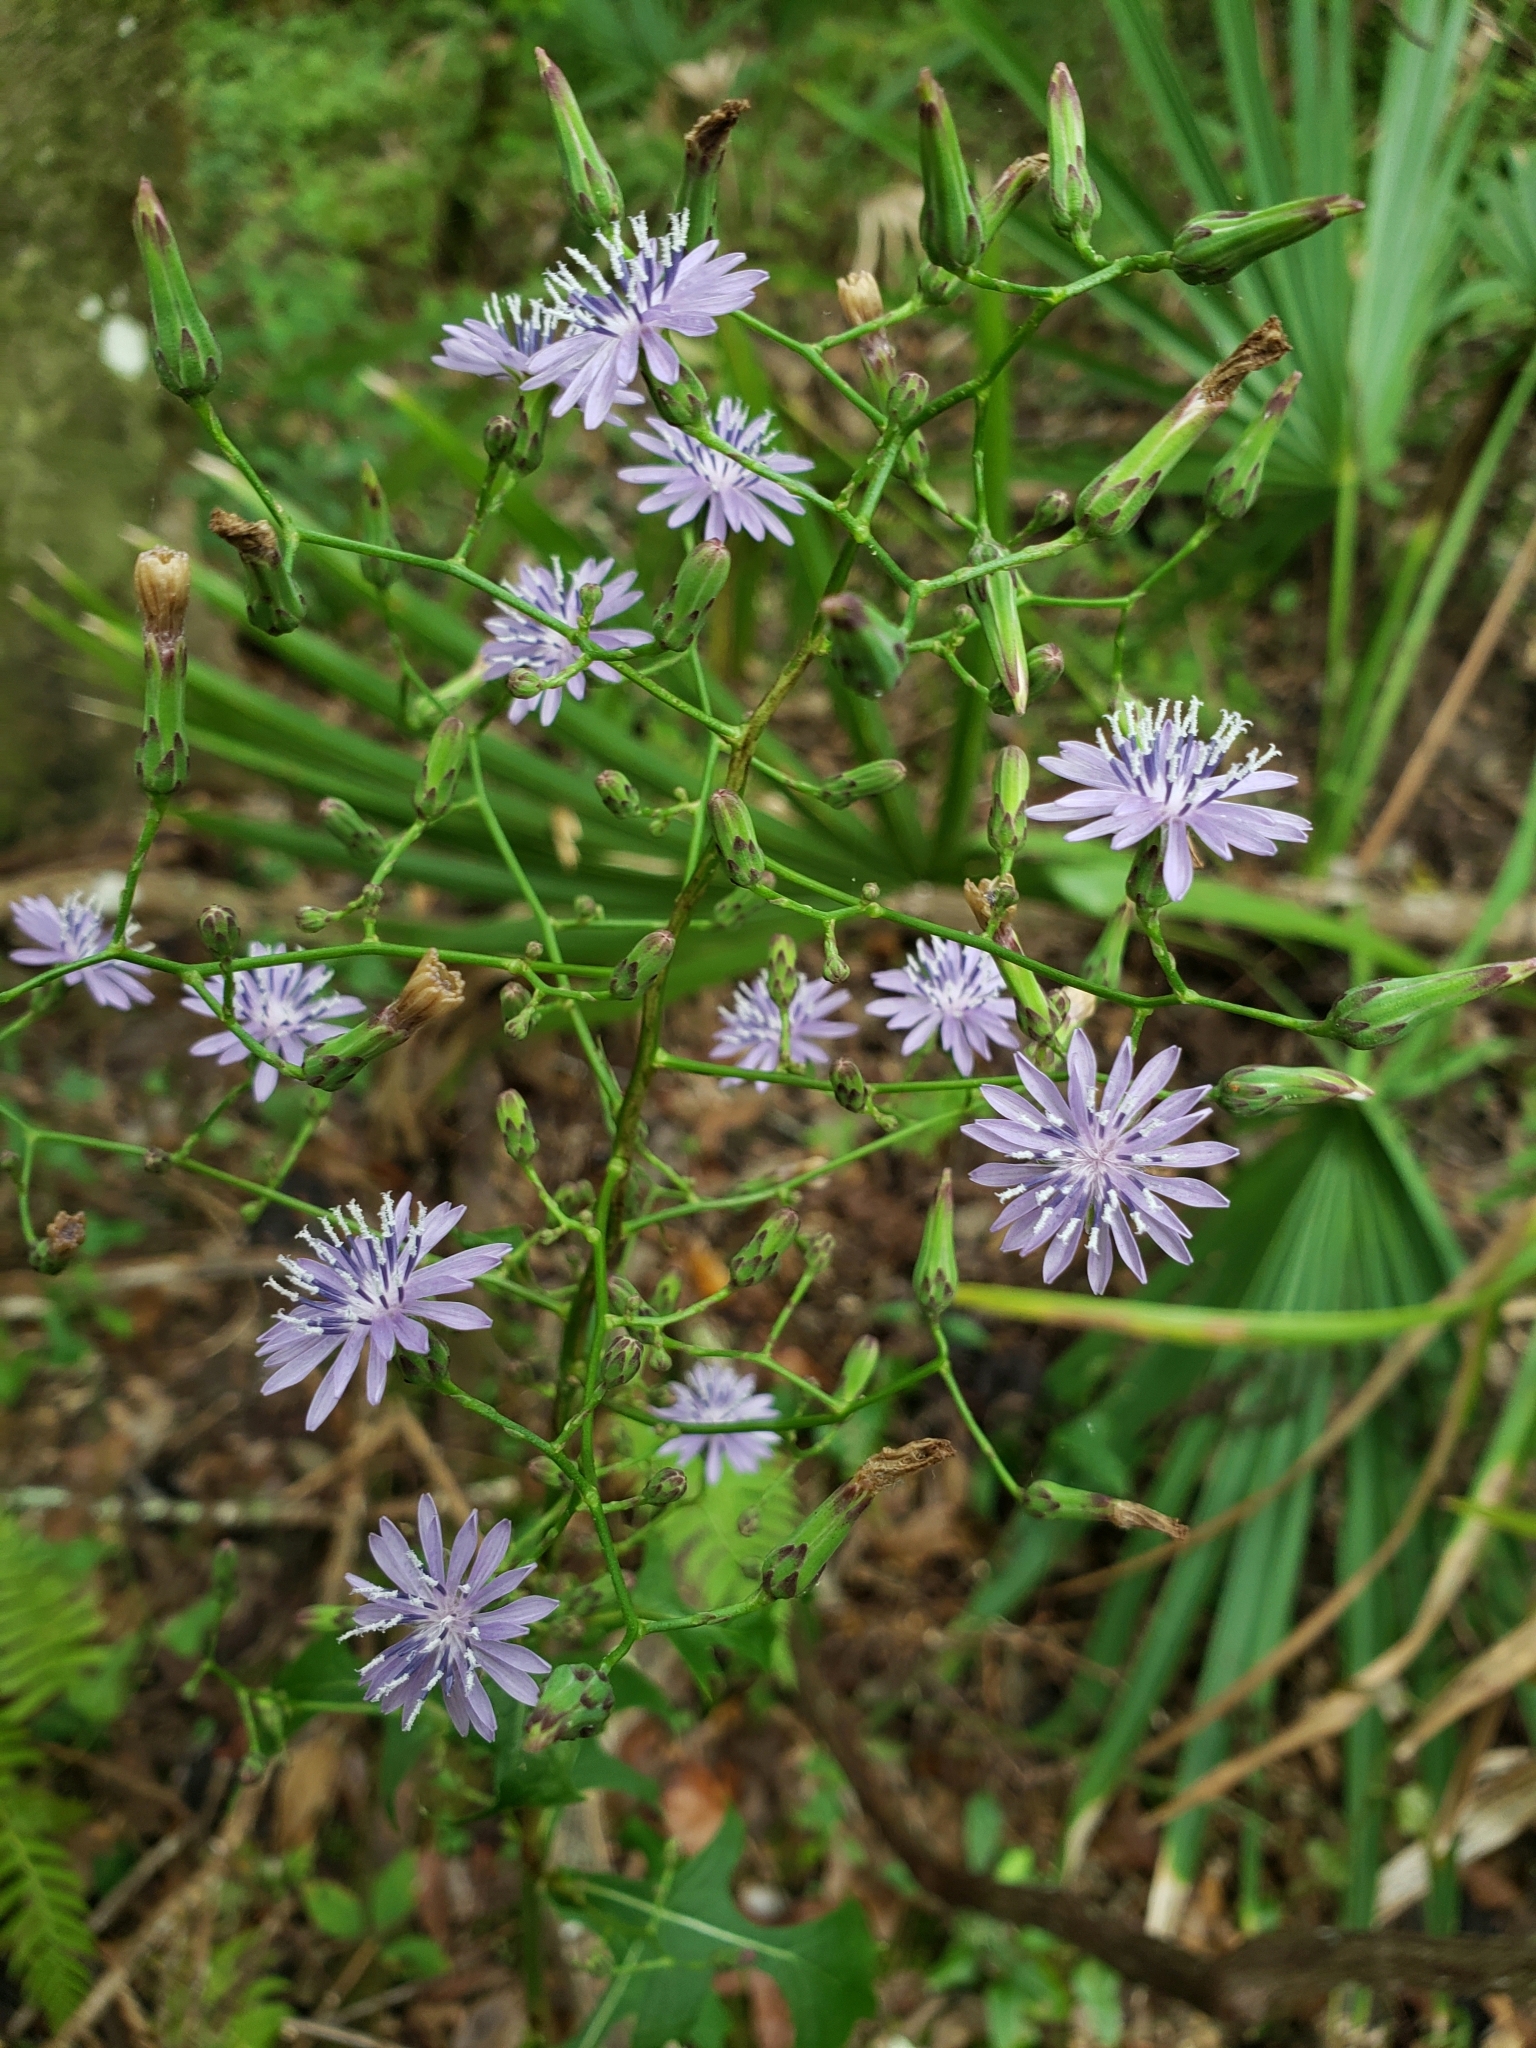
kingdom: Plantae
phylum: Tracheophyta
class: Magnoliopsida
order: Asterales
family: Asteraceae
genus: Lactuca
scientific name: Lactuca floridana
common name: Woodland lettuce
